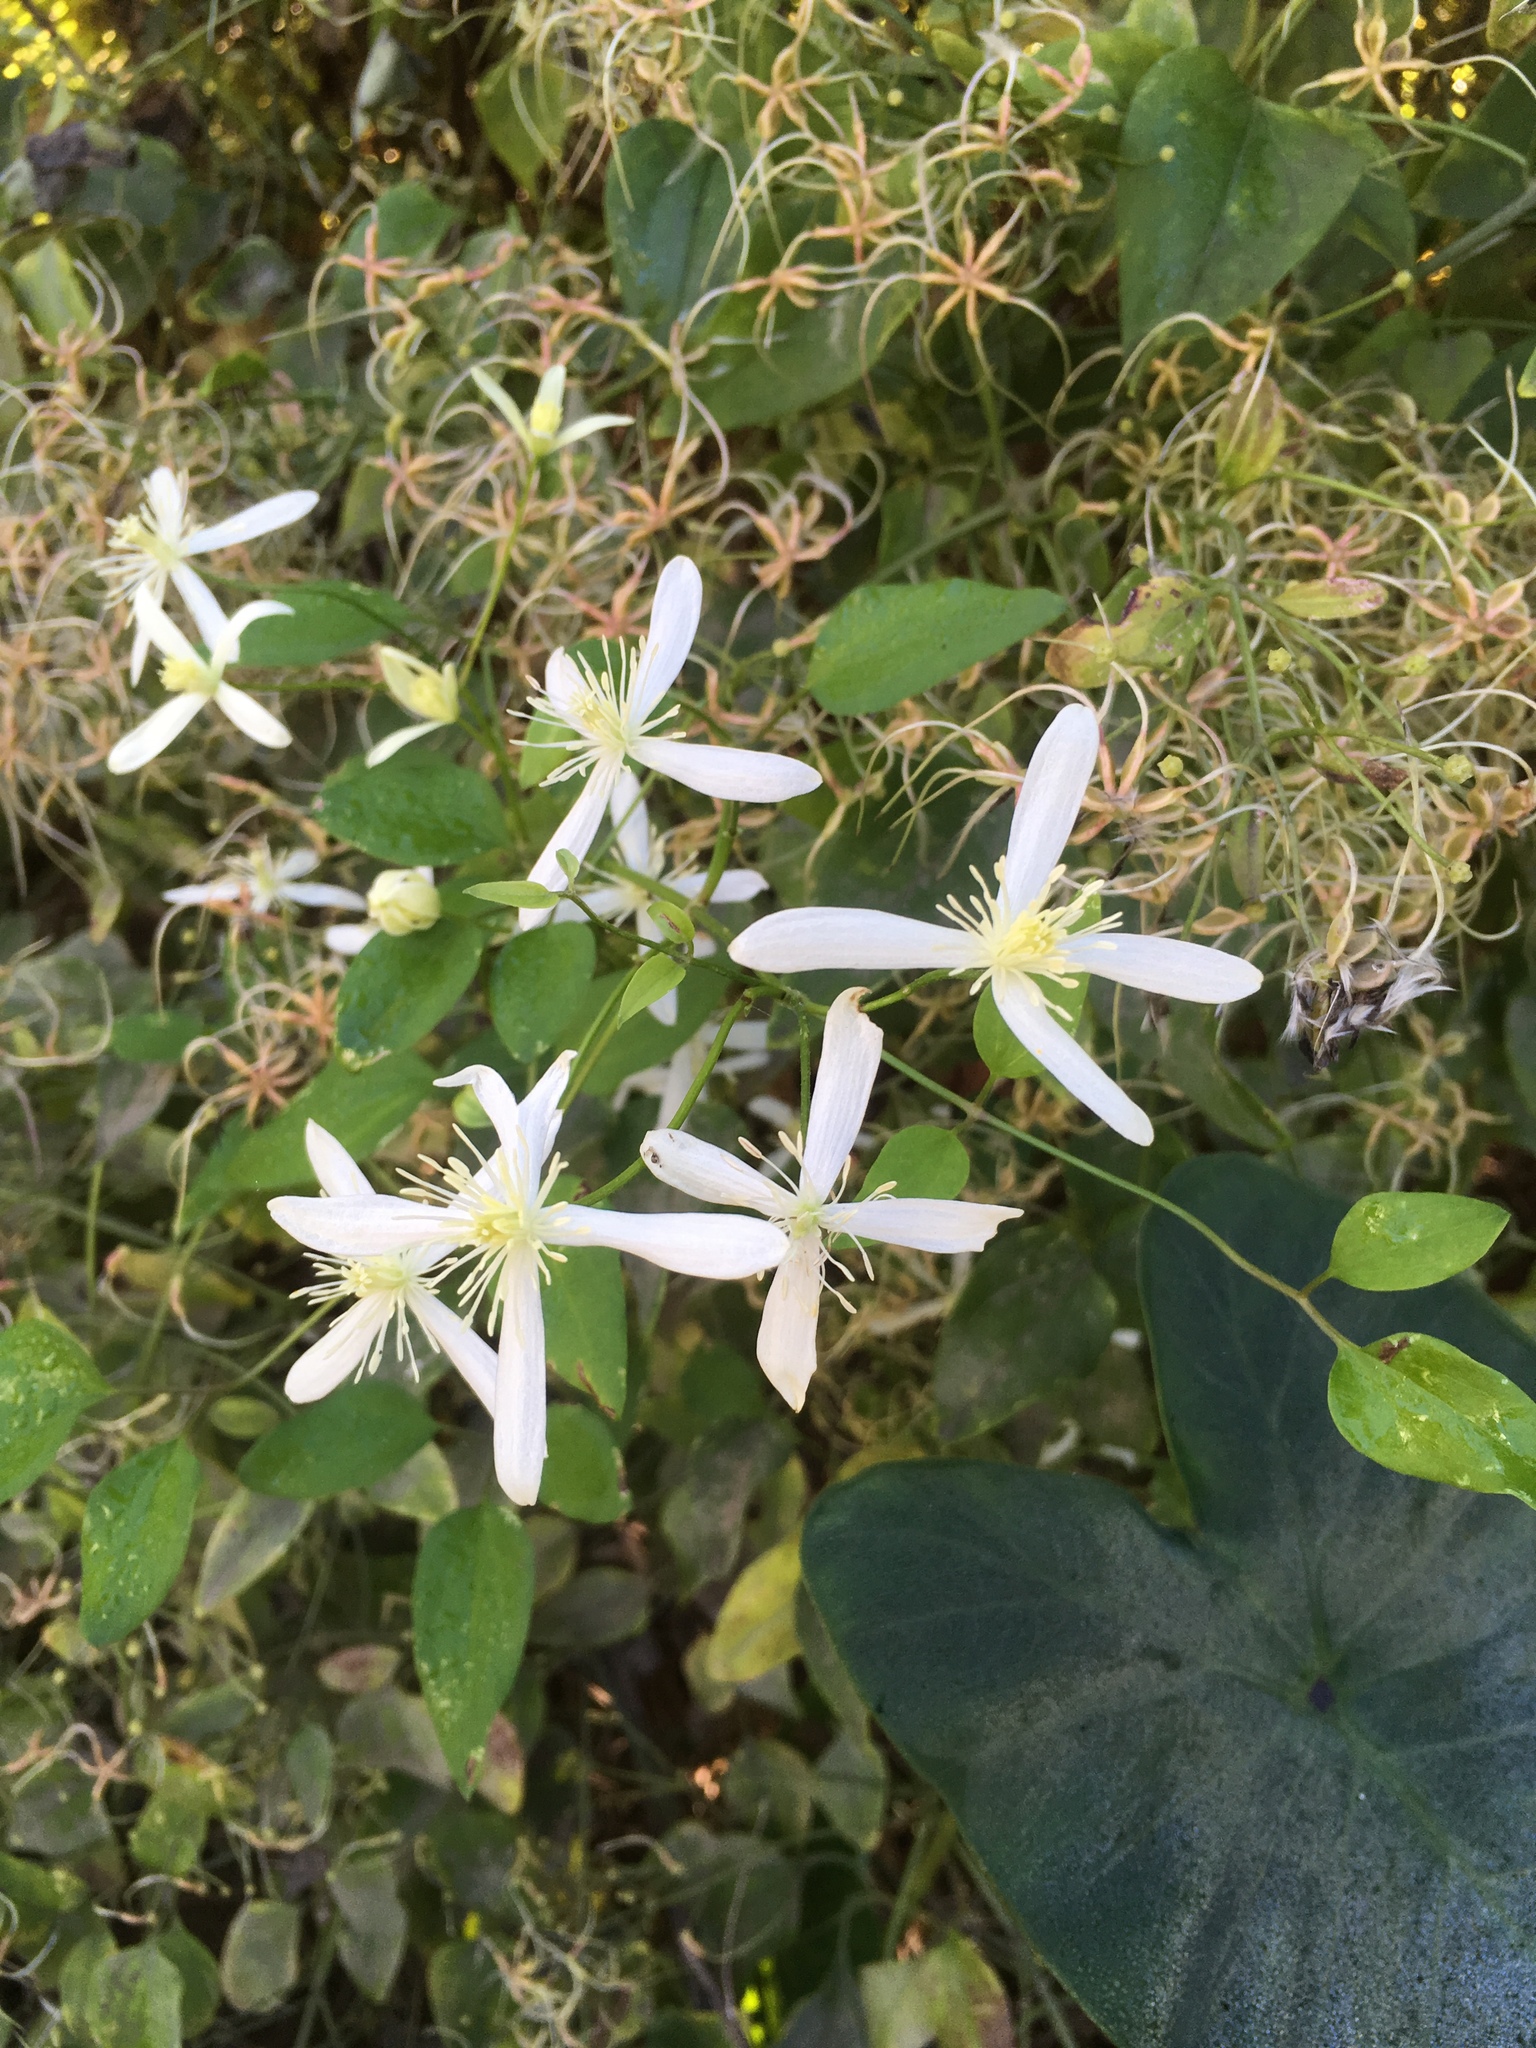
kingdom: Plantae
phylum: Tracheophyta
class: Magnoliopsida
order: Ranunculales
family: Ranunculaceae
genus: Clematis
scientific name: Clematis terniflora
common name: Sweet autumn clematis
